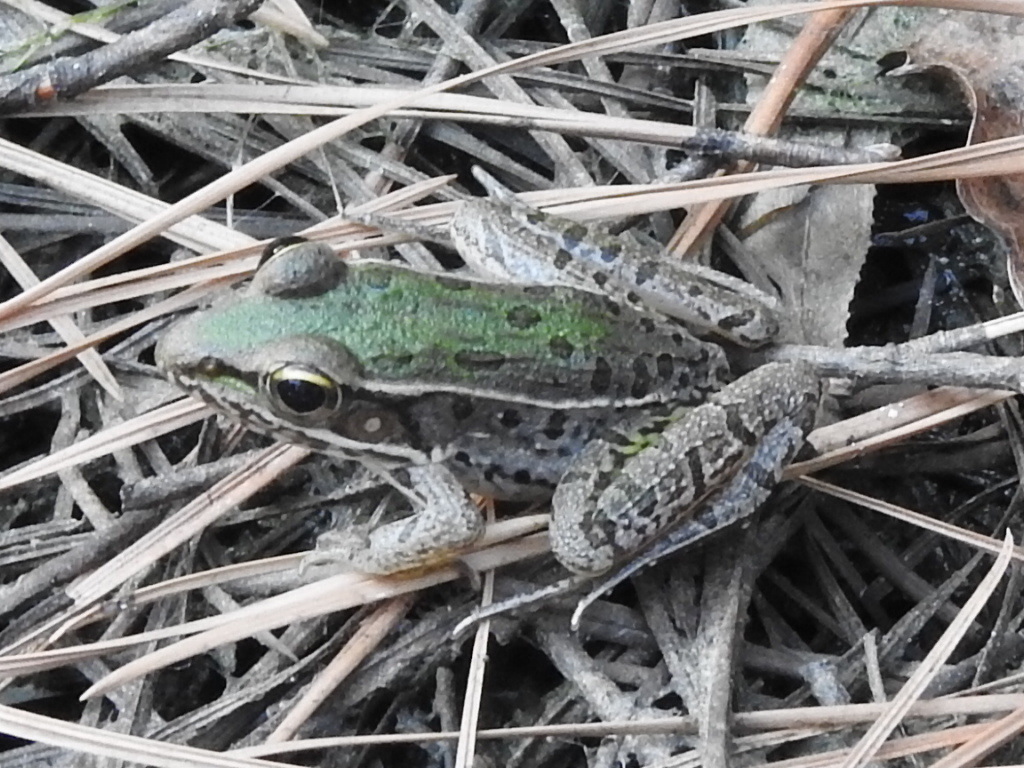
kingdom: Animalia
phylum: Chordata
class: Amphibia
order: Anura
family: Ranidae
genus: Lithobates
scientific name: Lithobates sphenocephalus
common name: Southern leopard frog
